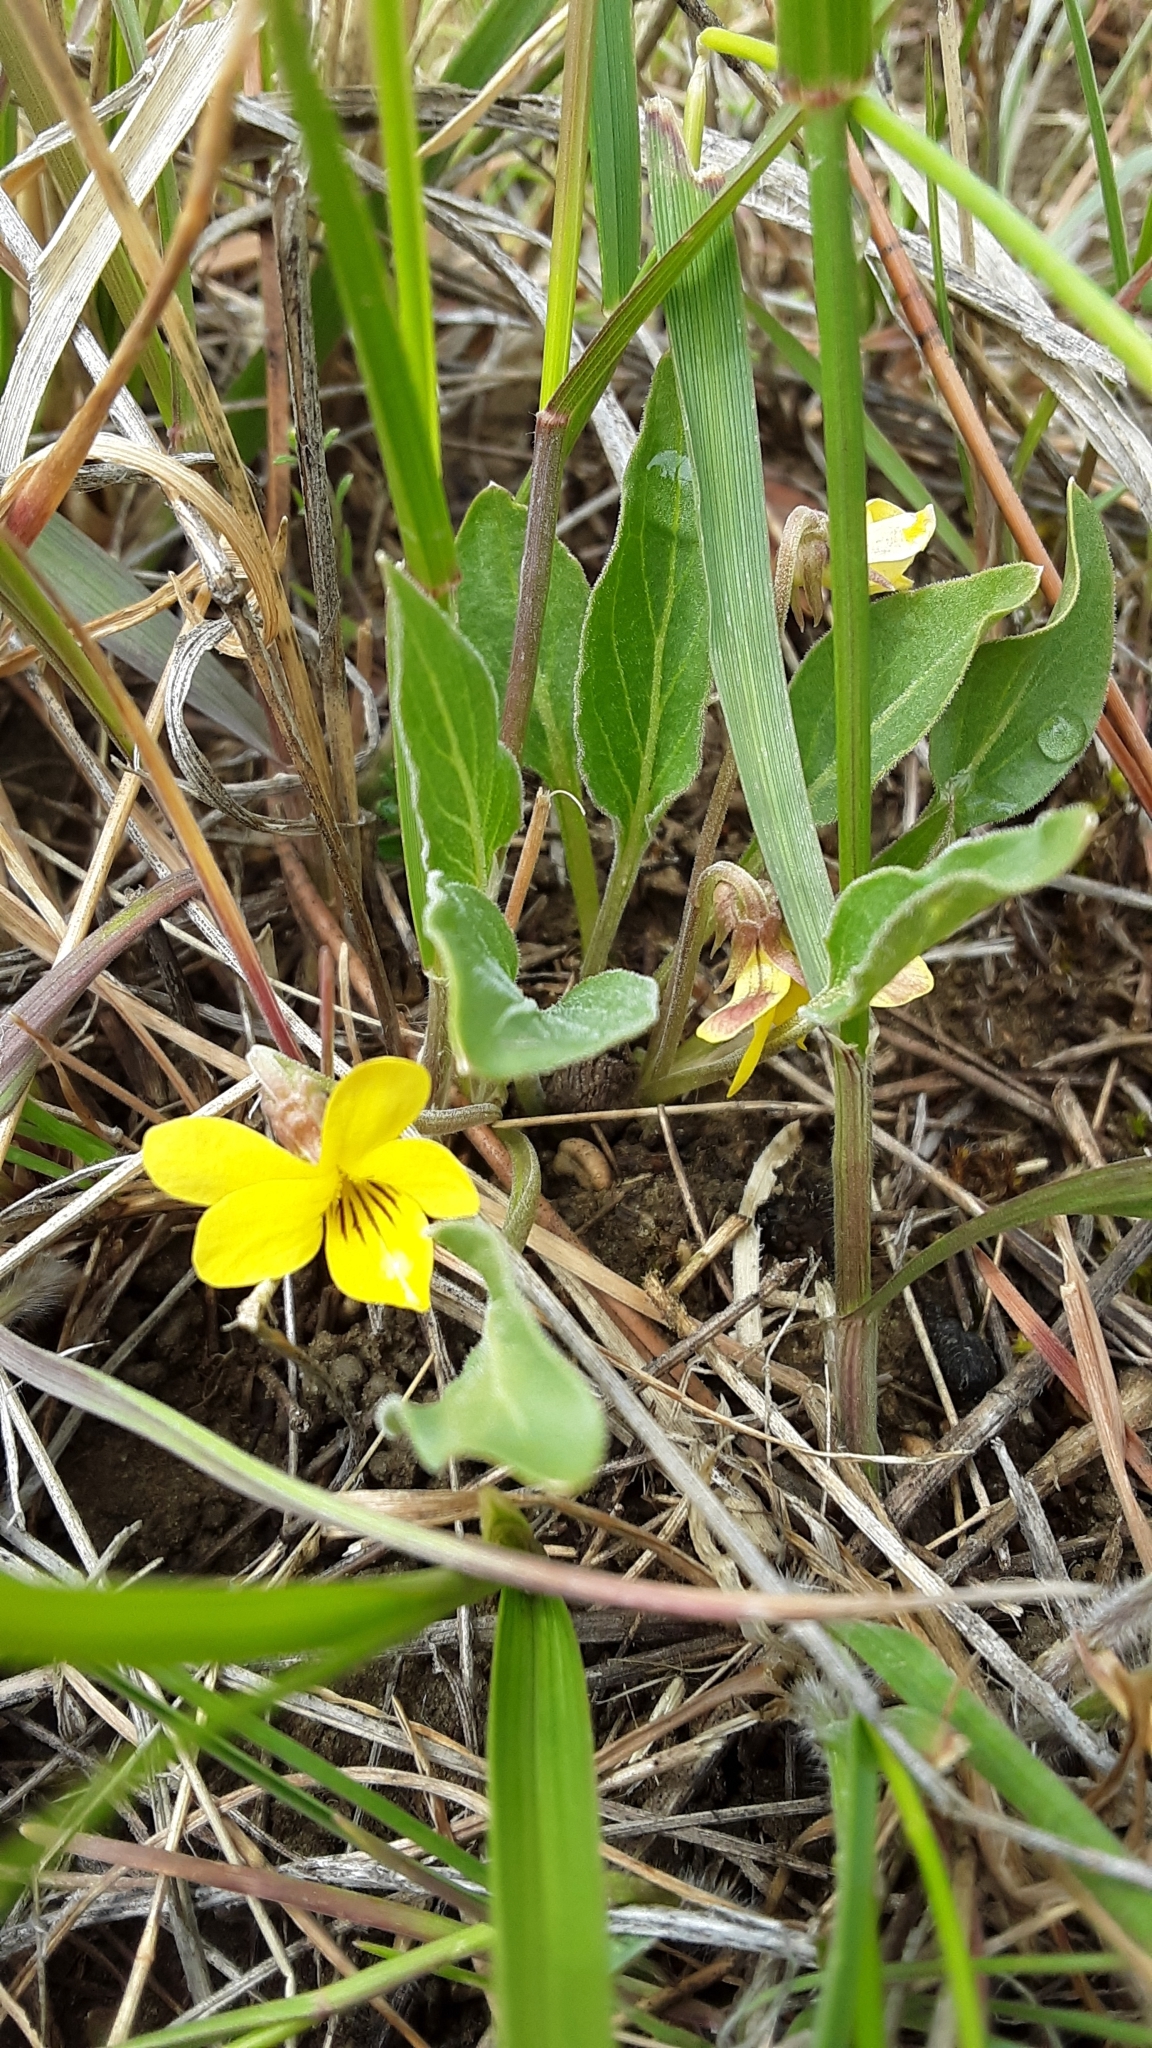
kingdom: Plantae
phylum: Tracheophyta
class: Magnoliopsida
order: Malpighiales
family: Violaceae
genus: Viola
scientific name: Viola nuttallii
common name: Yellow prairie violet
